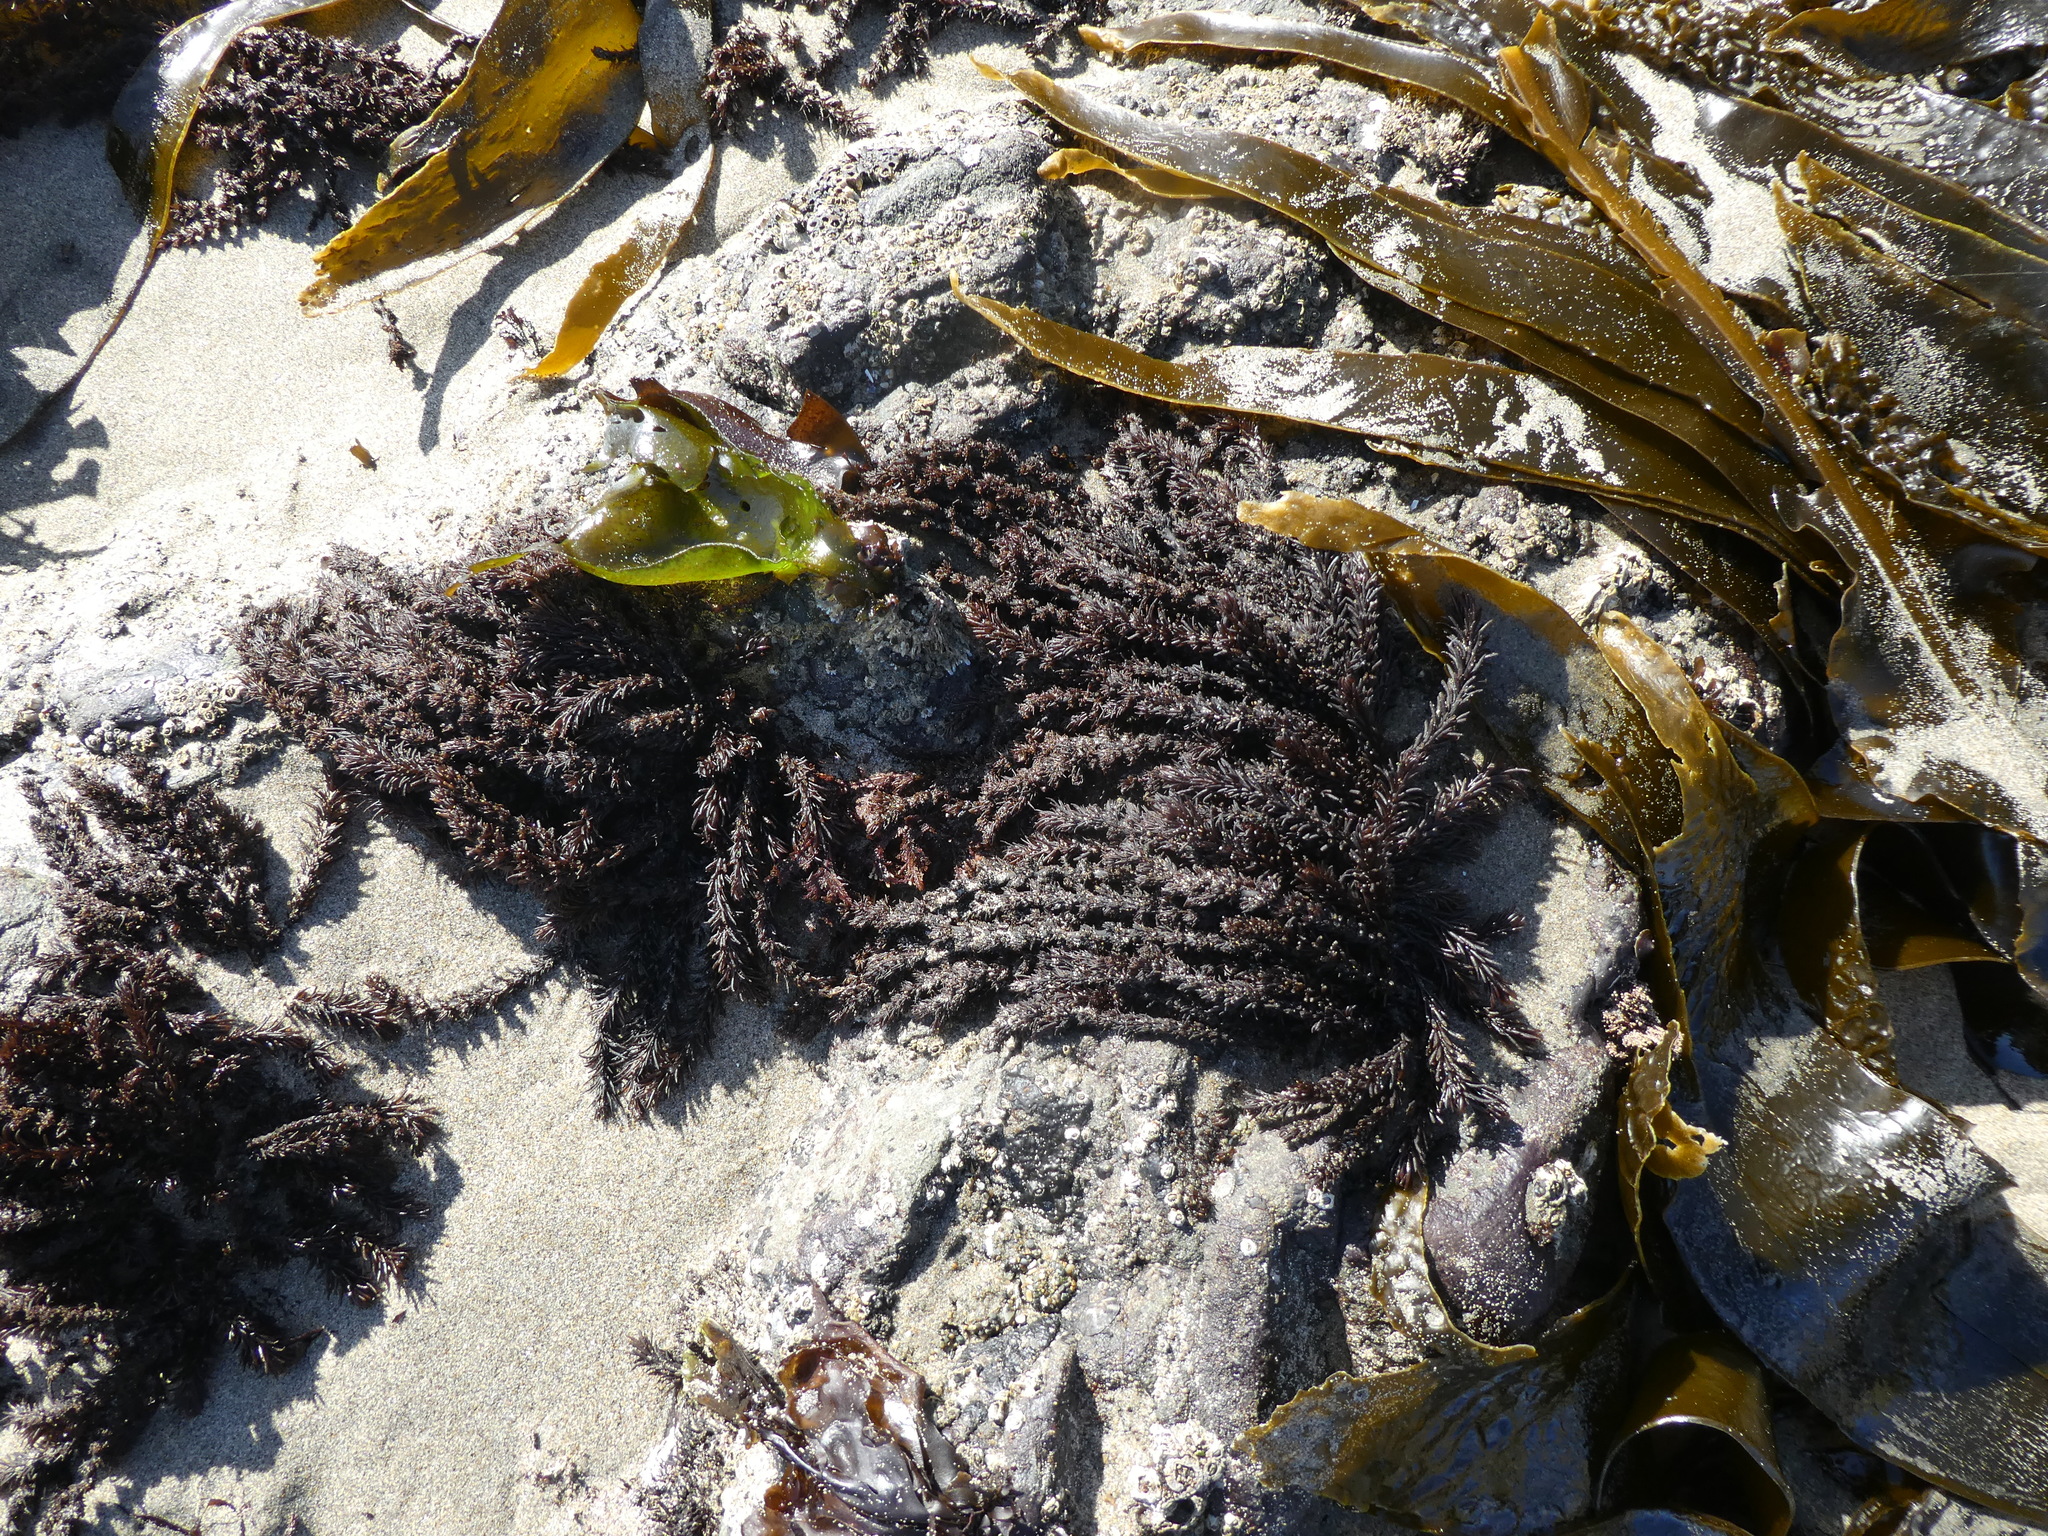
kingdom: Plantae
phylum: Rhodophyta
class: Florideophyceae
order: Ceramiales
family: Rhodomelaceae
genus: Neorhodomela
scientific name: Neorhodomela larix
